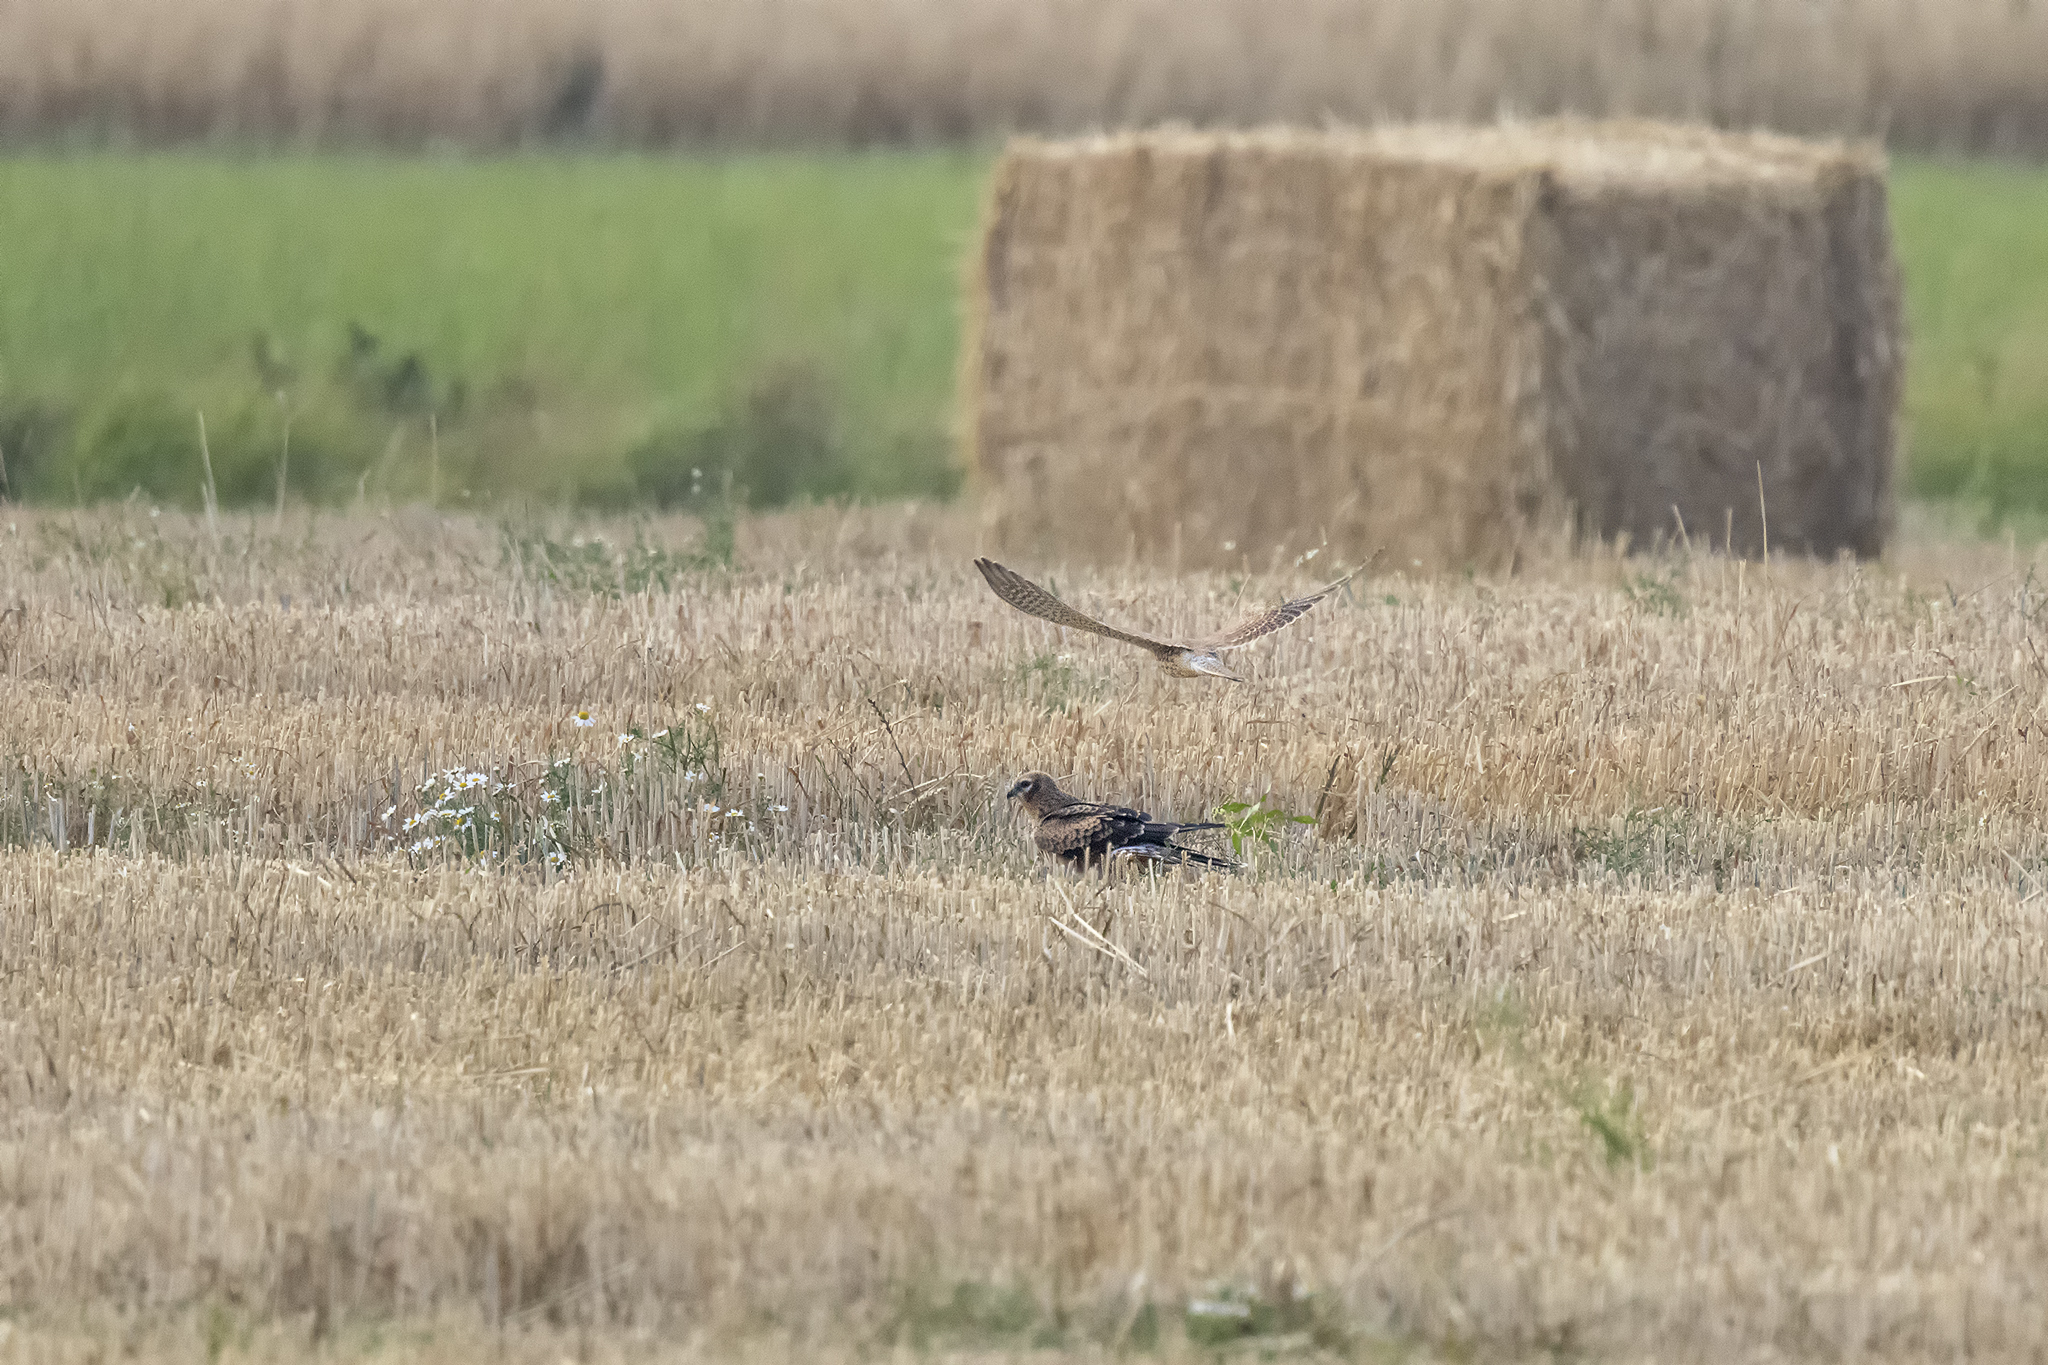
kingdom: Animalia
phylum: Chordata
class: Aves
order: Accipitriformes
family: Accipitridae
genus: Circus
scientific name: Circus pygargus
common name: Montagu's harrier
